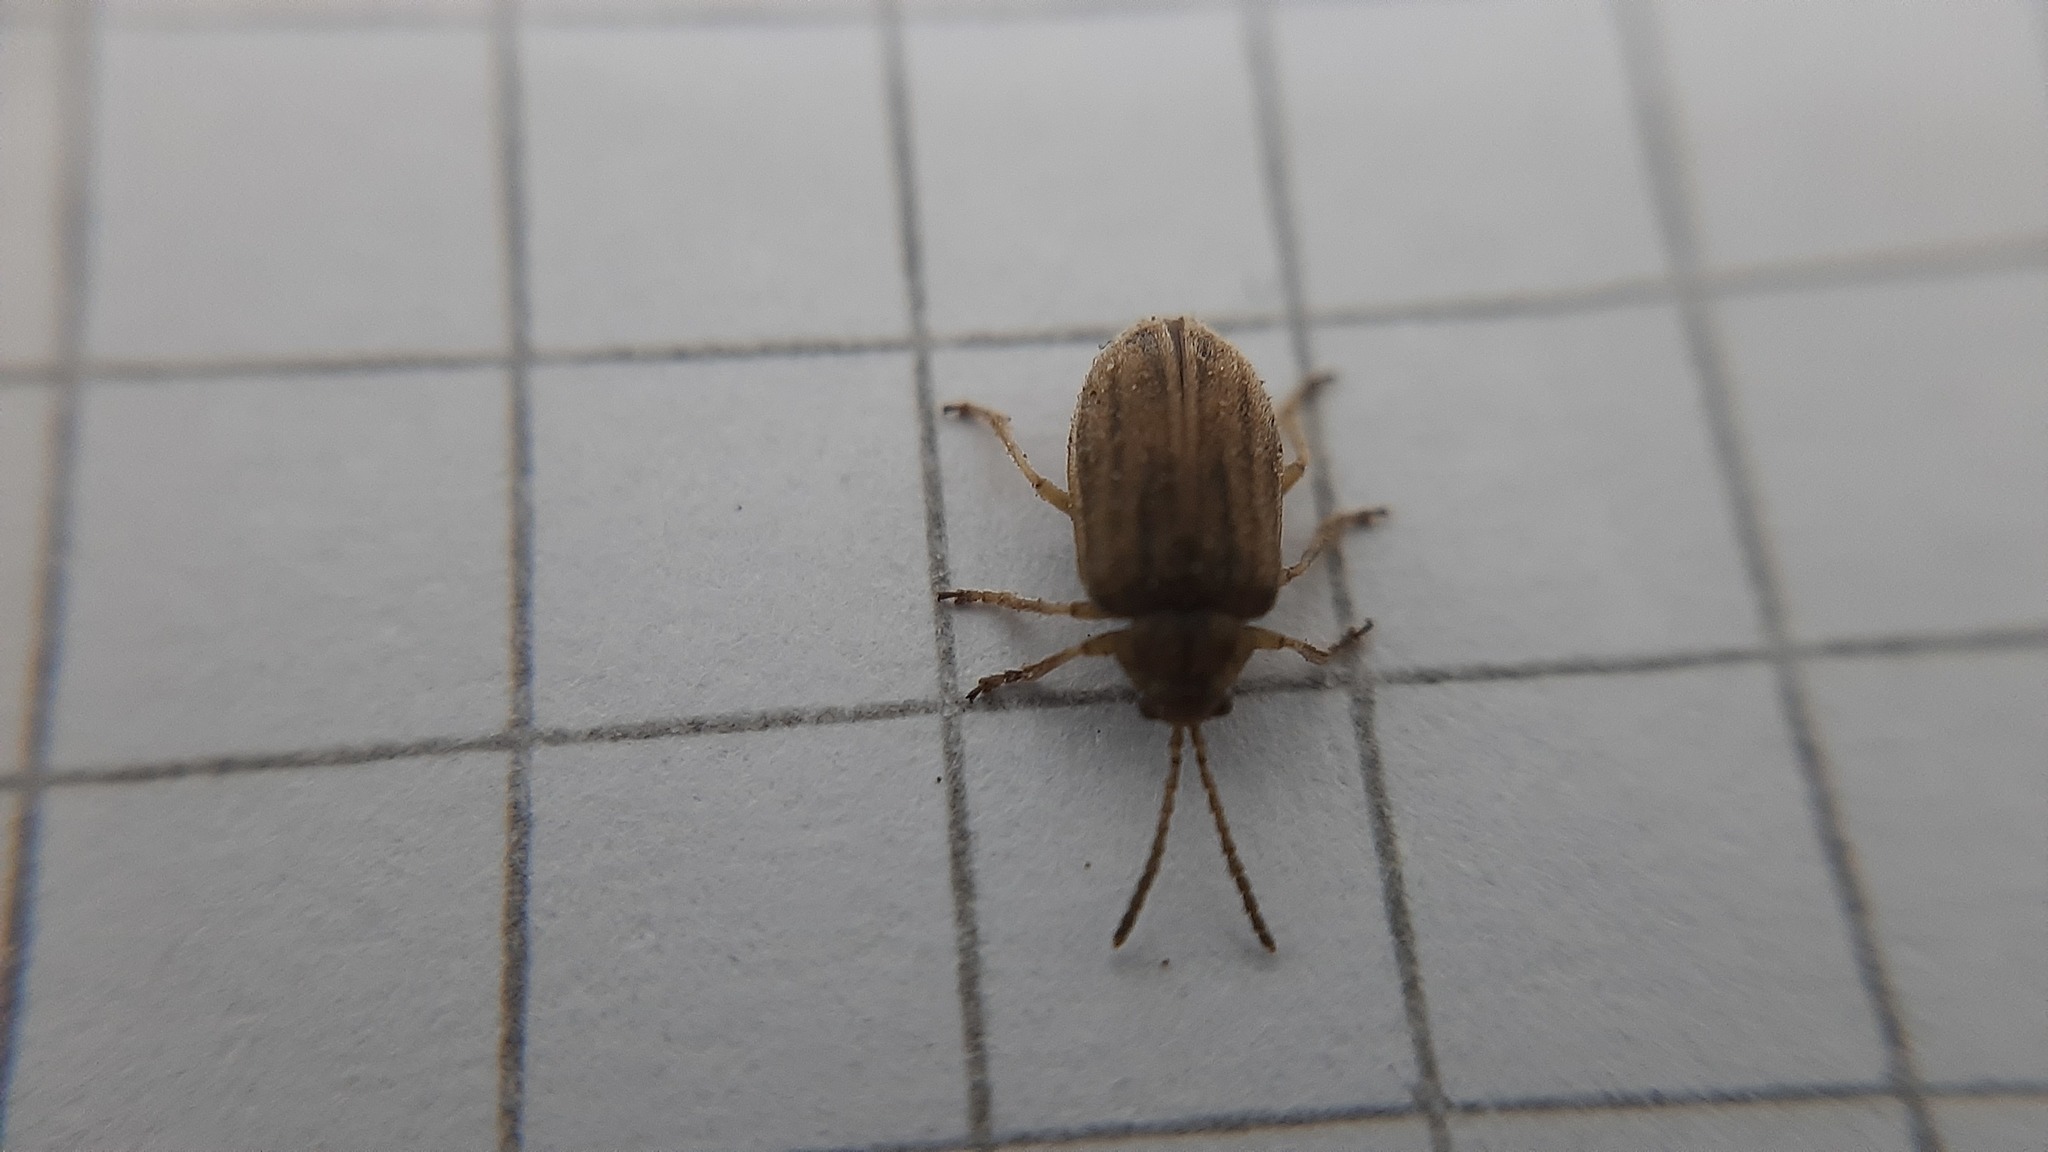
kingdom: Animalia
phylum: Arthropoda
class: Insecta
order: Coleoptera
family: Chrysomelidae
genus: Ophraella
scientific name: Ophraella communa
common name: Ragweed leaf beetle
